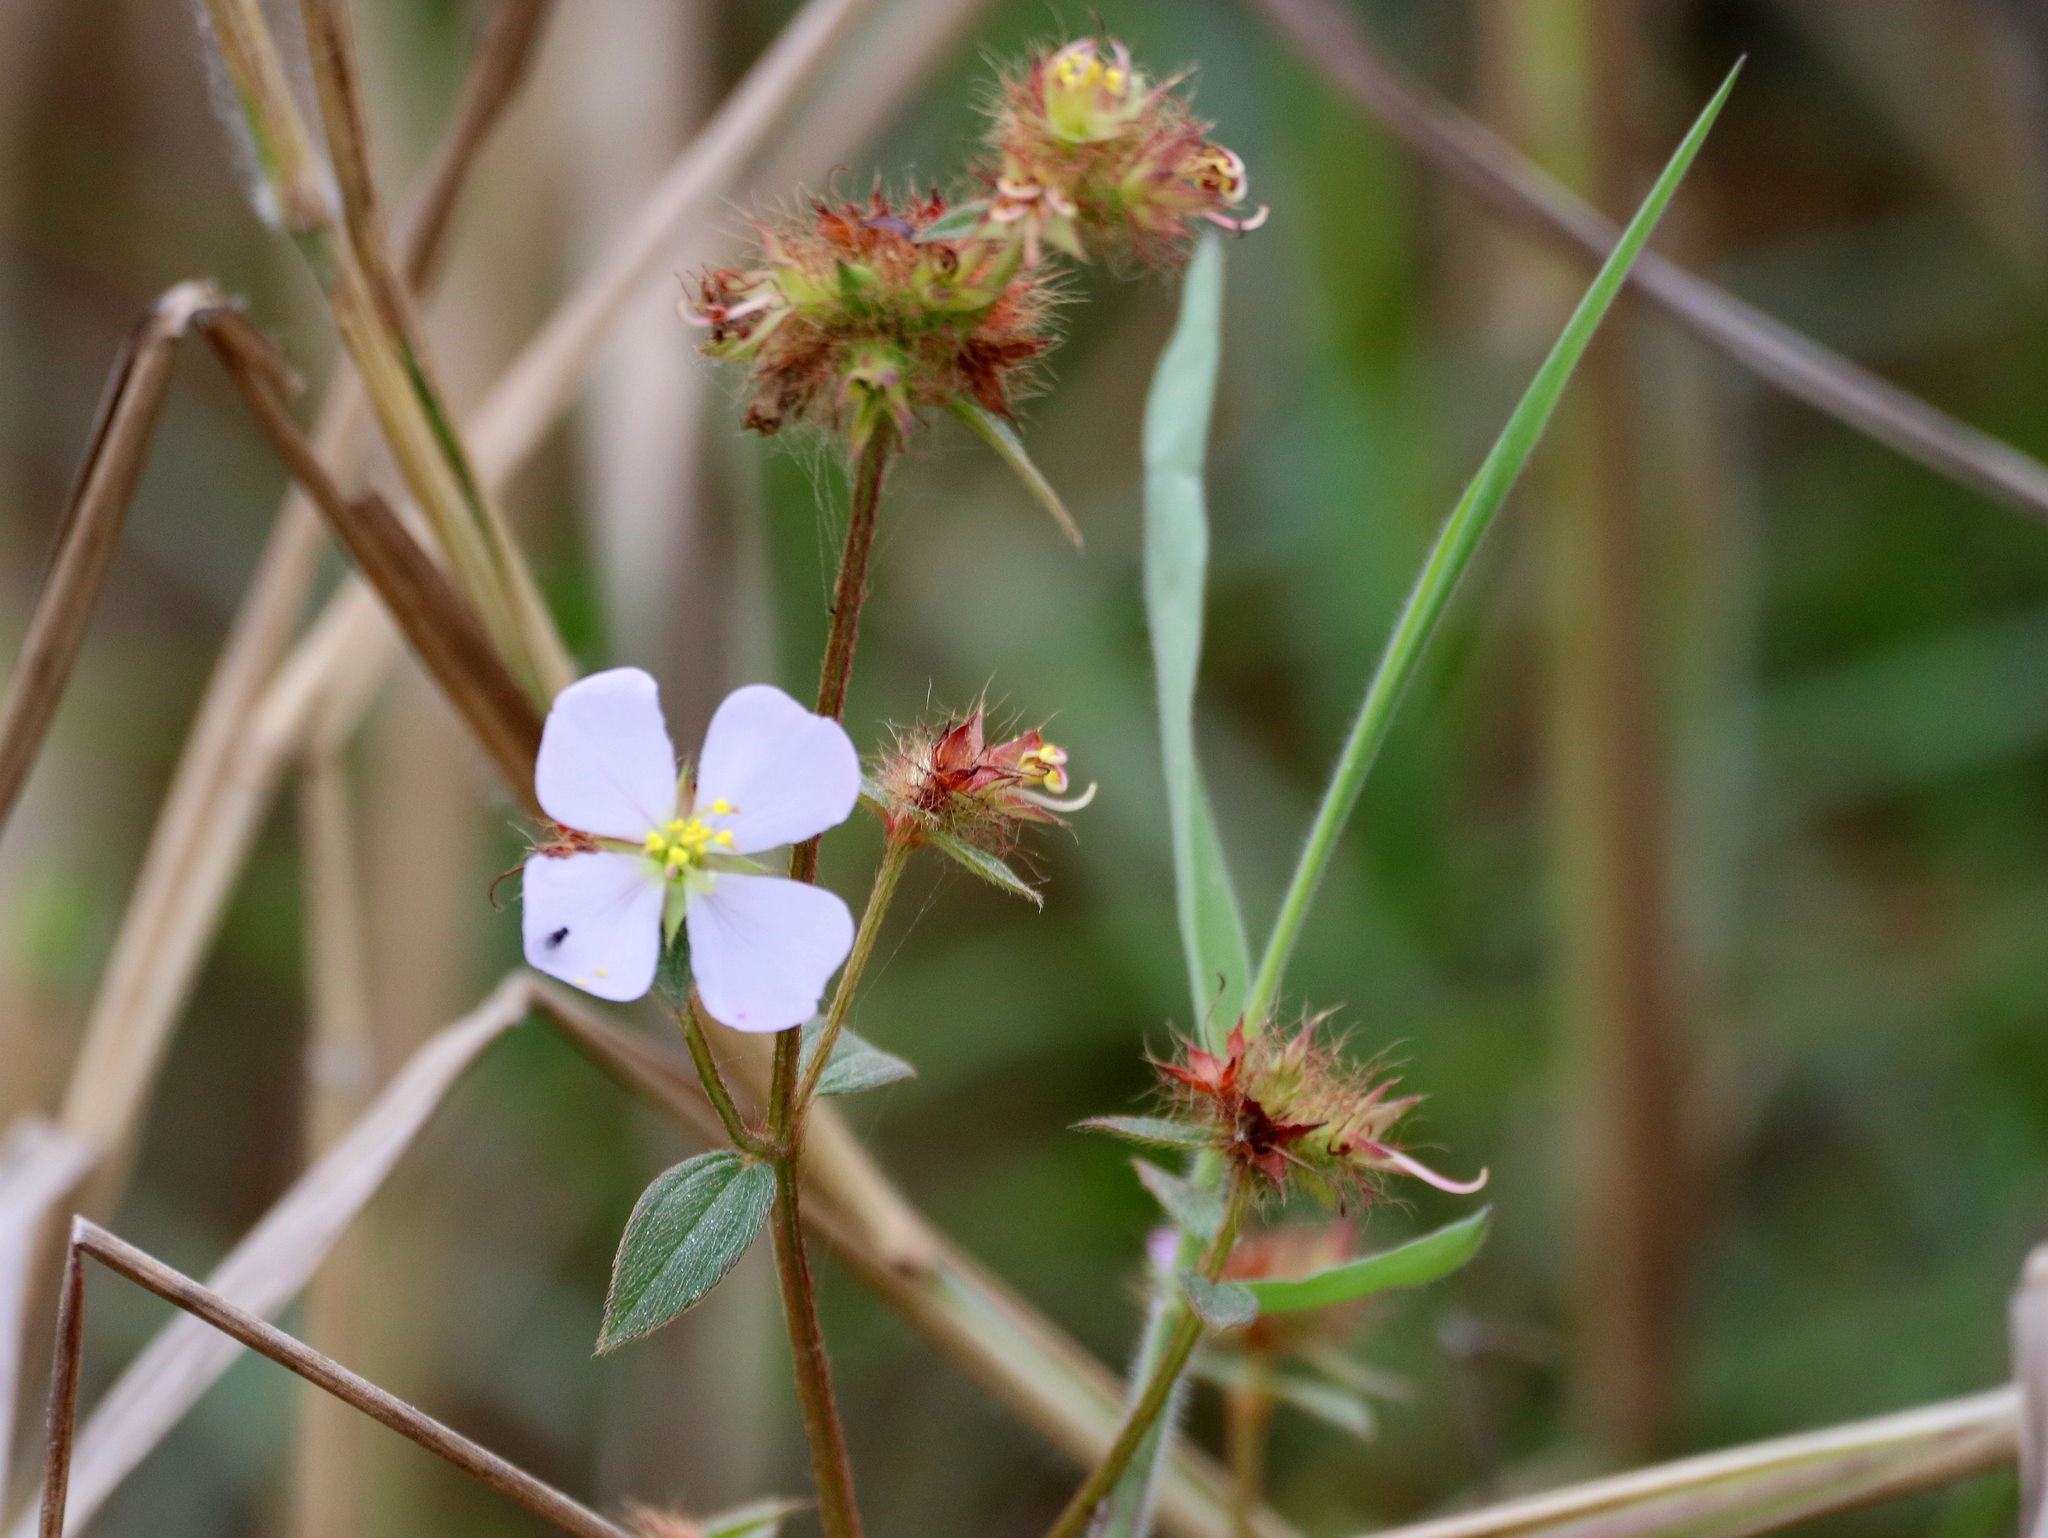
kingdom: Plantae
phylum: Tracheophyta
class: Magnoliopsida
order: Myrtales
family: Melastomataceae
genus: Pterolepis
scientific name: Pterolepis glomerata
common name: False meadowbeauty
